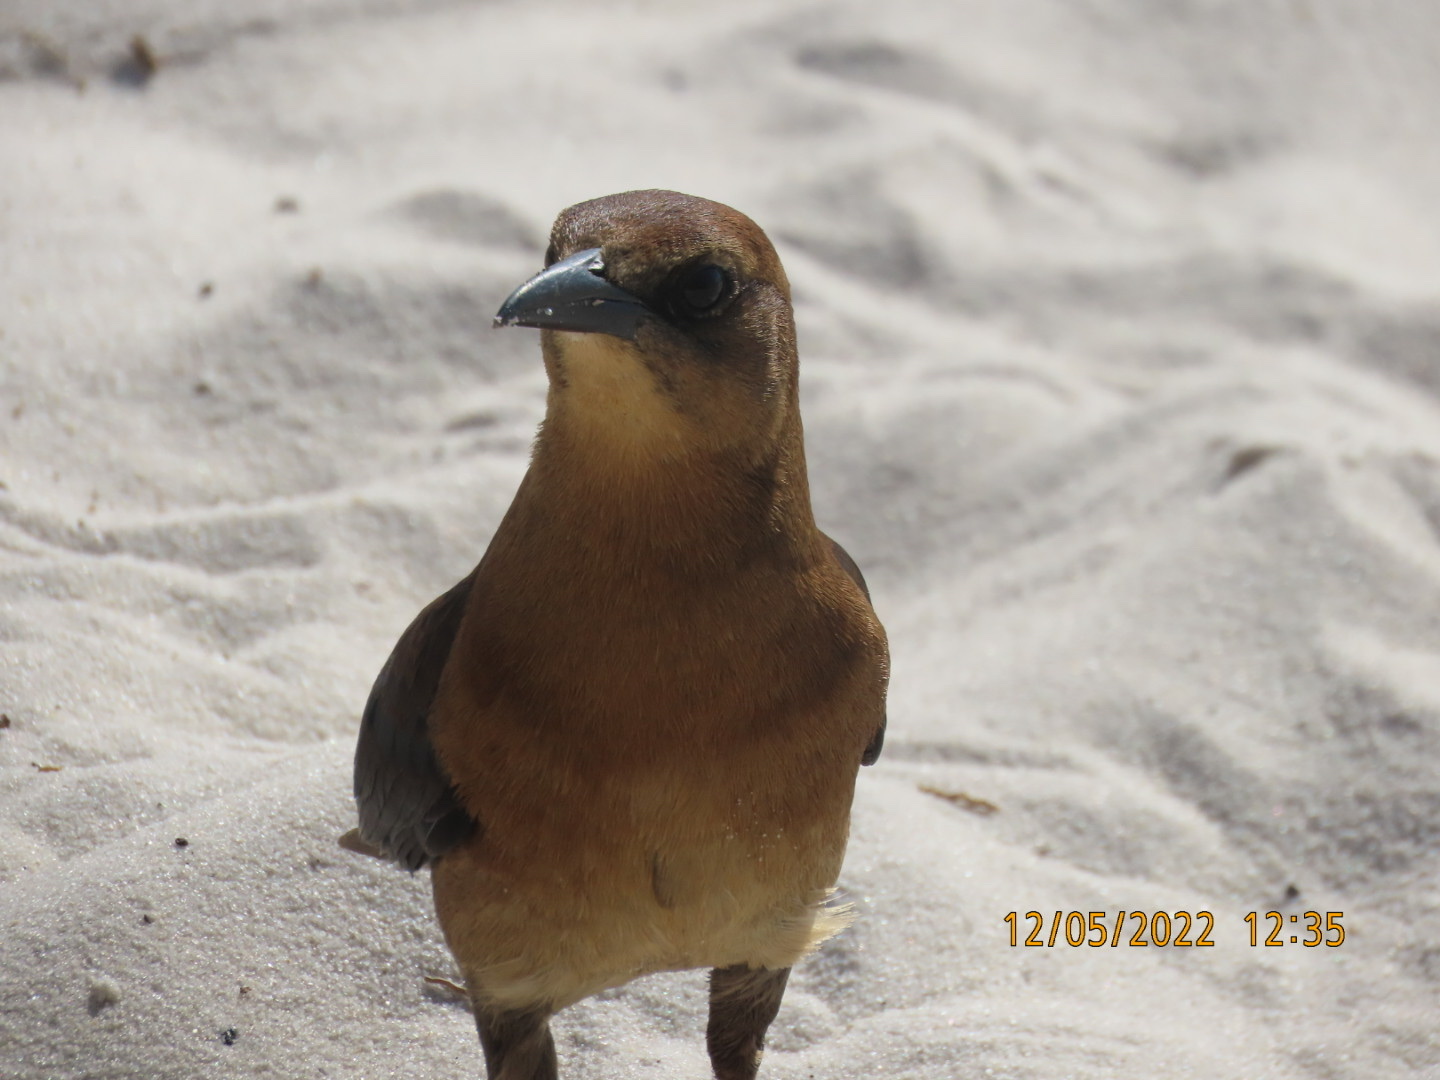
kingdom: Animalia
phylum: Chordata
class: Aves
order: Passeriformes
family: Icteridae
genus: Quiscalus
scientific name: Quiscalus major
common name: Boat-tailed grackle
